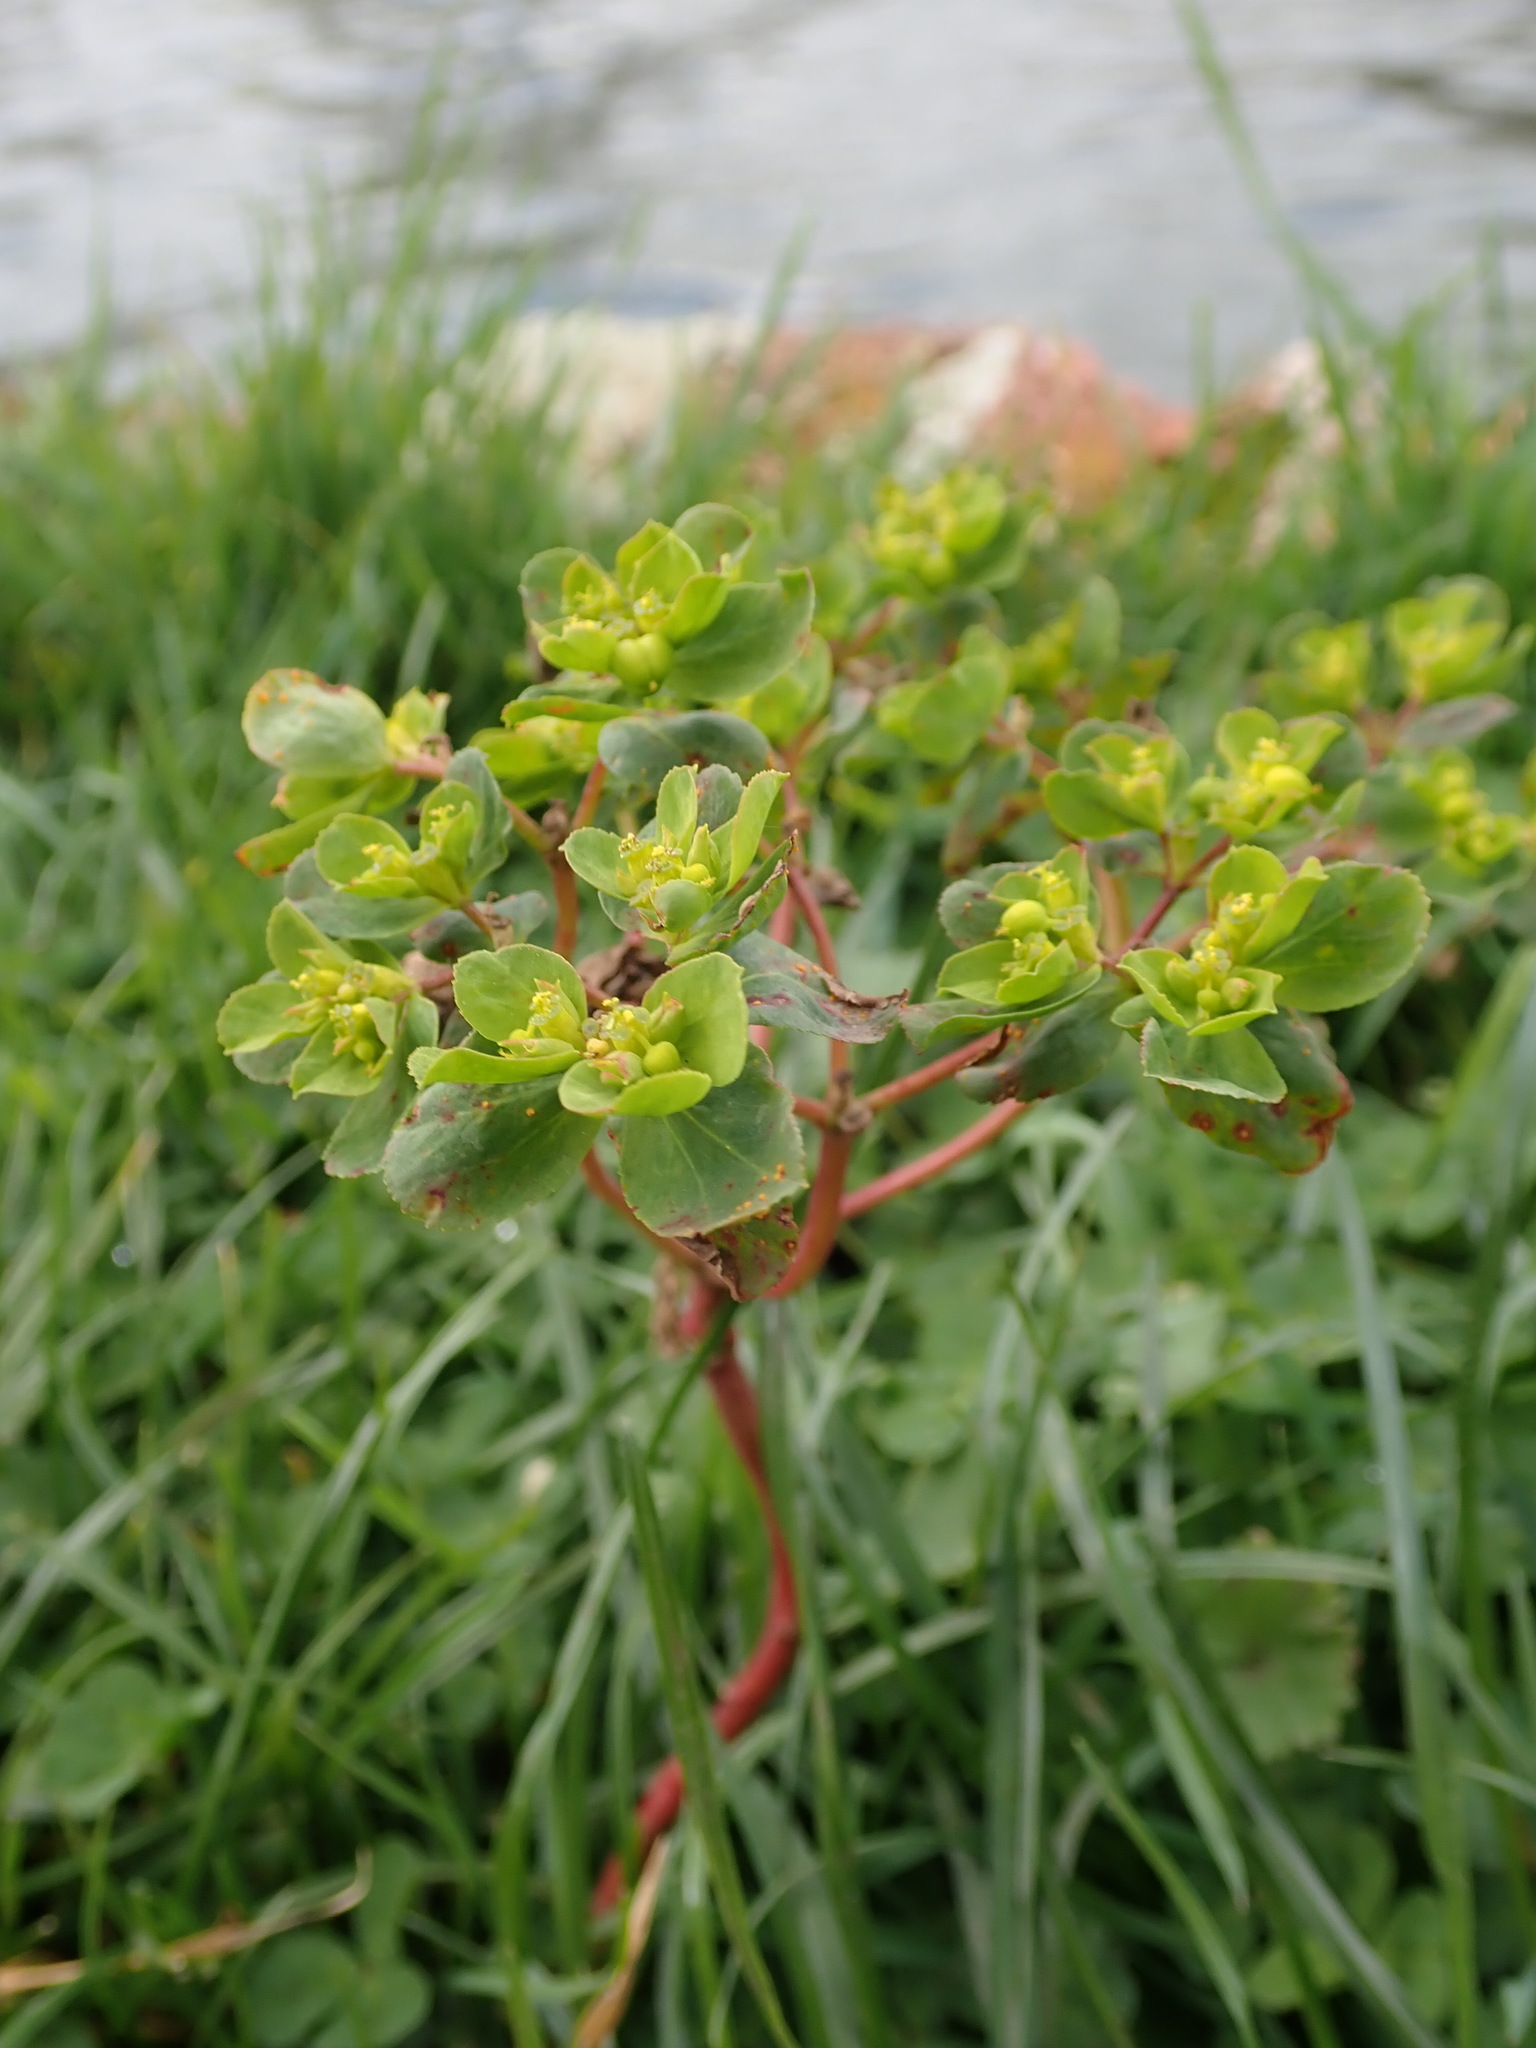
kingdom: Plantae
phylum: Tracheophyta
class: Magnoliopsida
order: Malpighiales
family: Euphorbiaceae
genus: Euphorbia
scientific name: Euphorbia helioscopia
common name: Sun spurge
